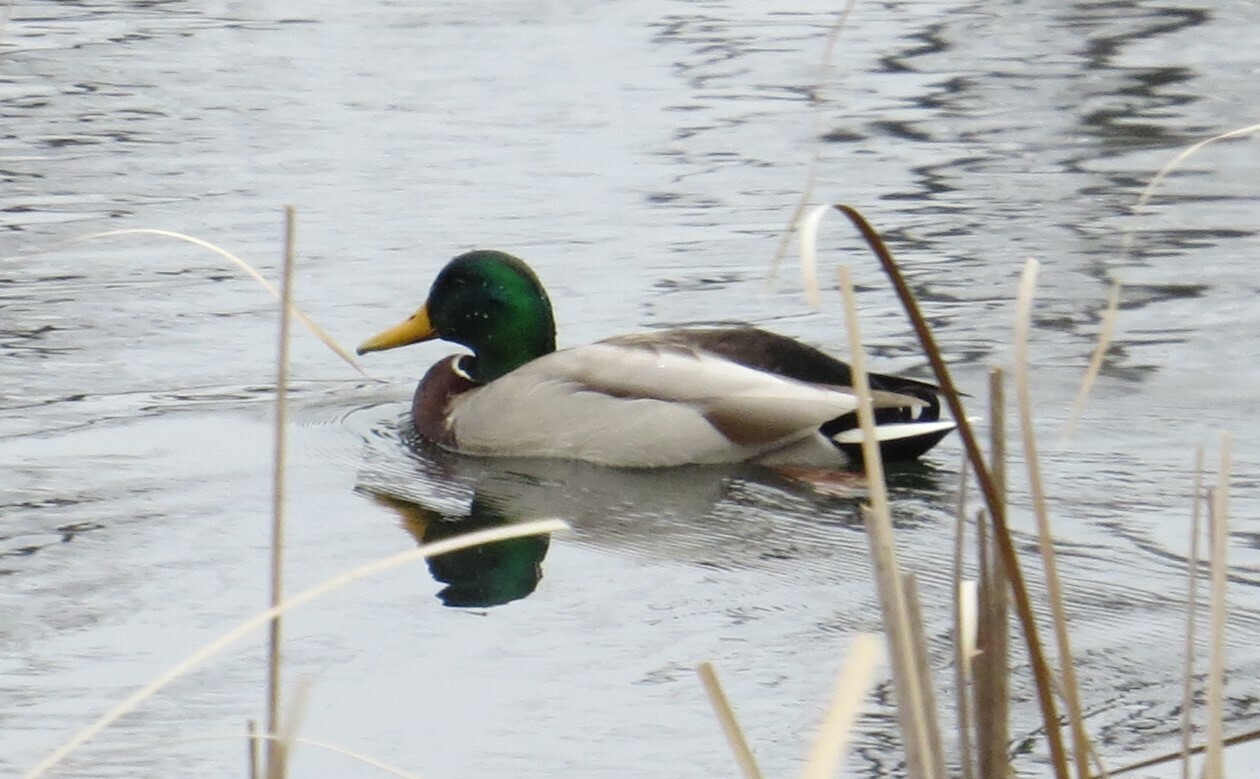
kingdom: Animalia
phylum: Chordata
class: Aves
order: Anseriformes
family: Anatidae
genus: Anas
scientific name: Anas platyrhynchos
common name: Mallard
